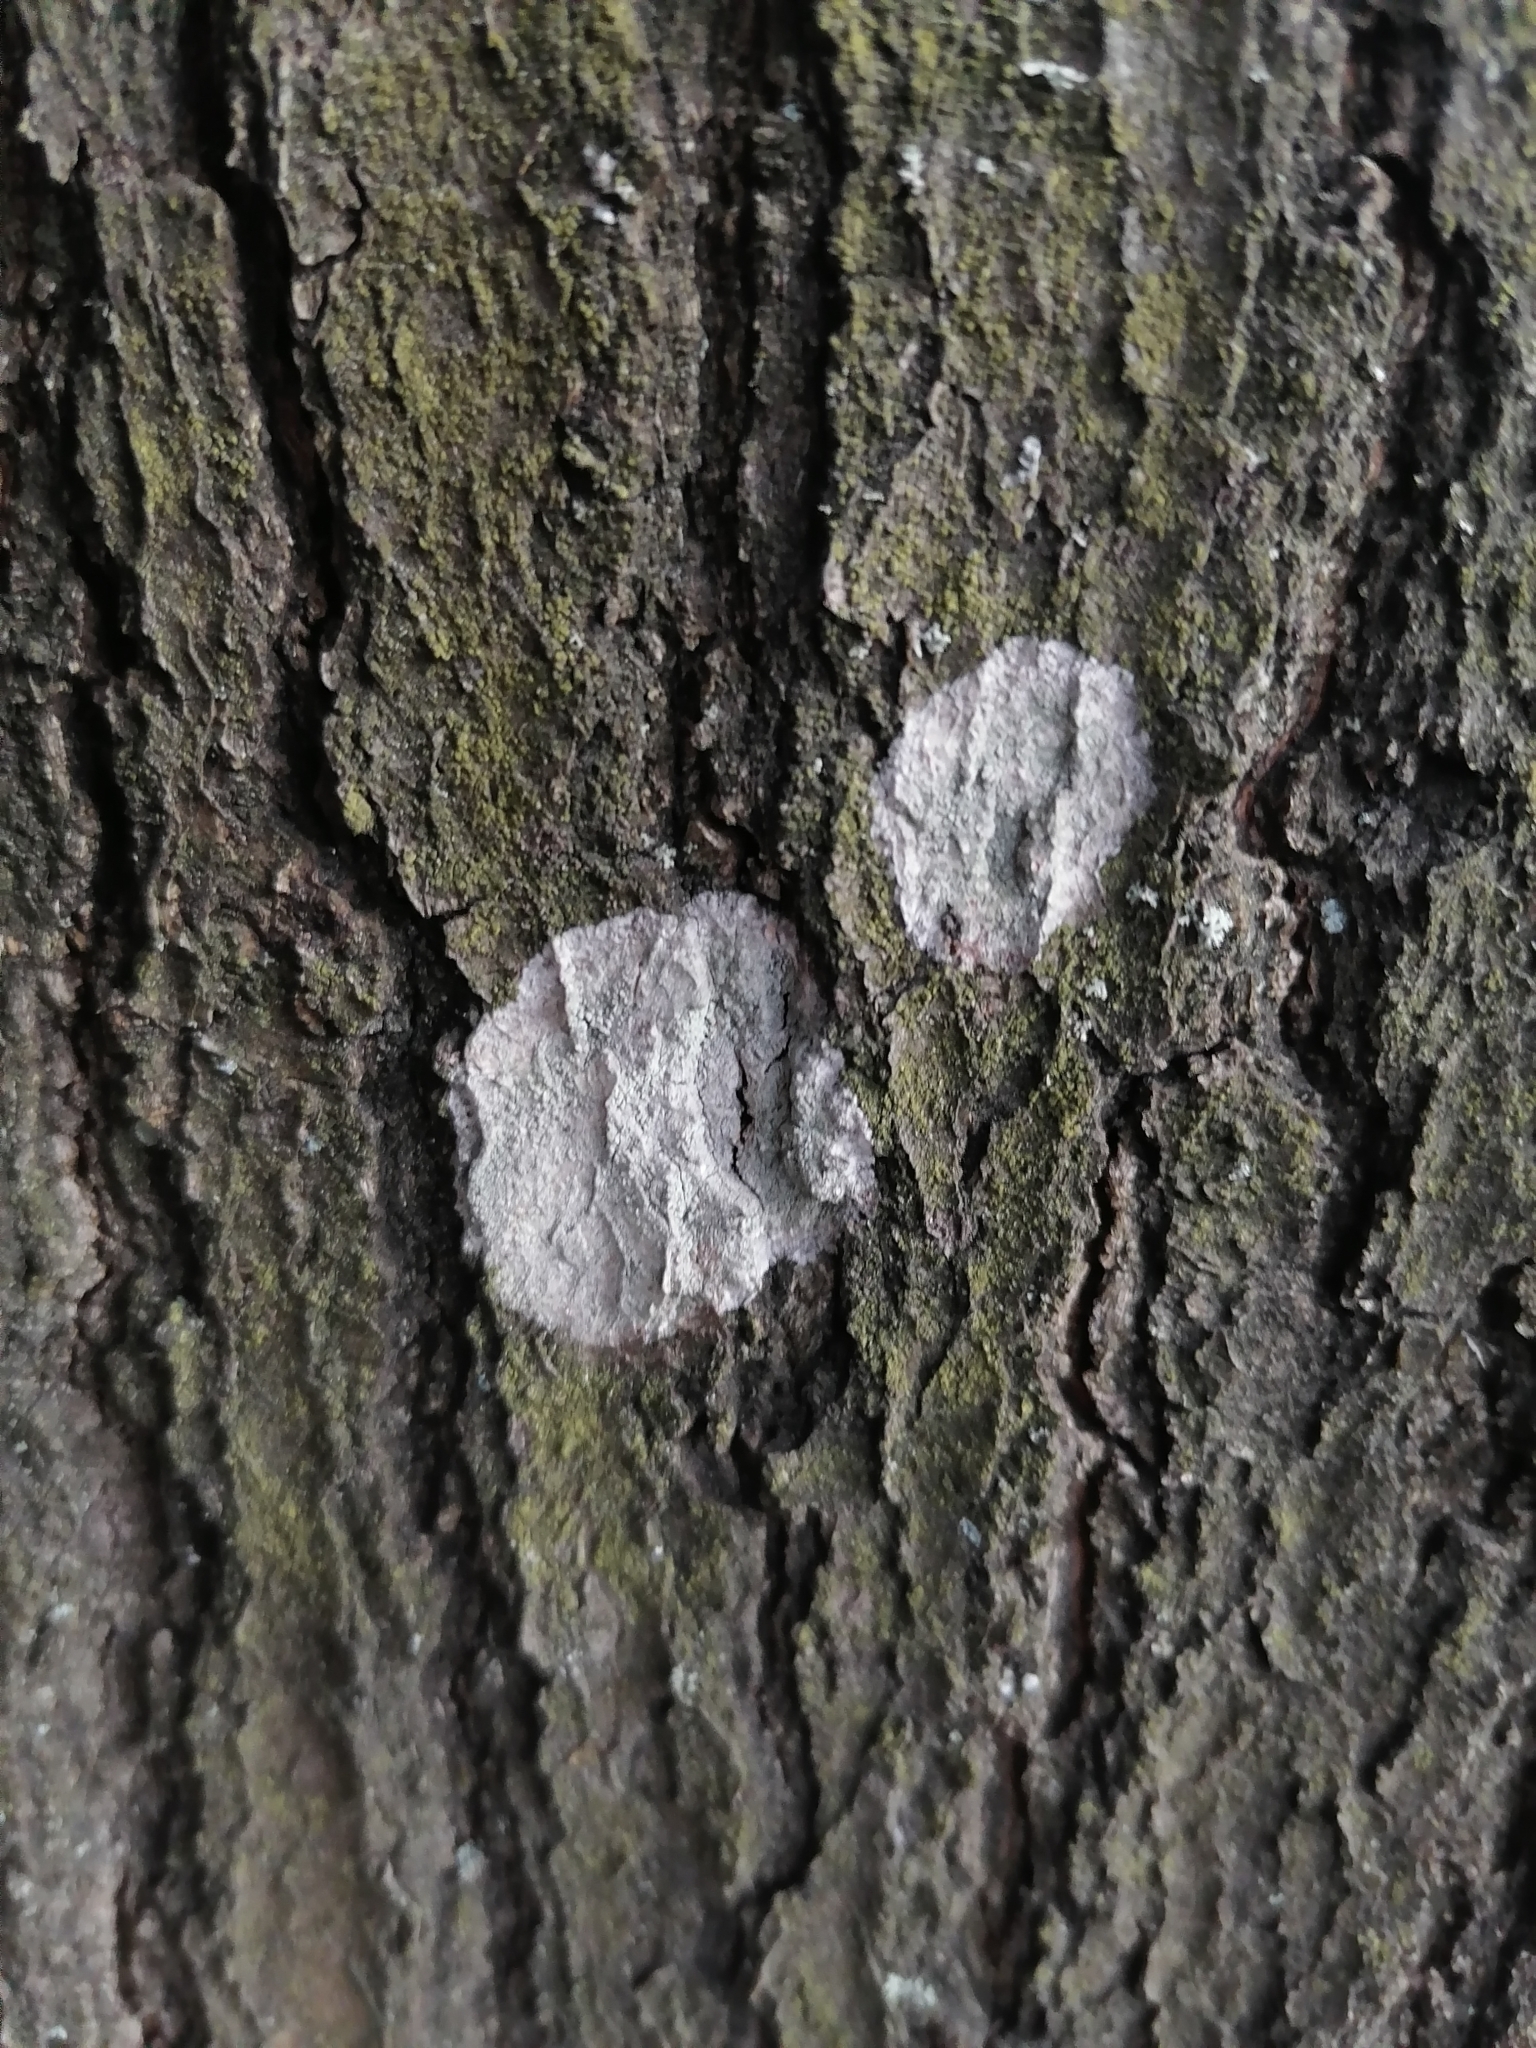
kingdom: Fungi
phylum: Ascomycota
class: Lecanoromycetes
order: Ostropales
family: Phlyctidaceae
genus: Phlyctis
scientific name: Phlyctis argena
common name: Whitewash lichen
